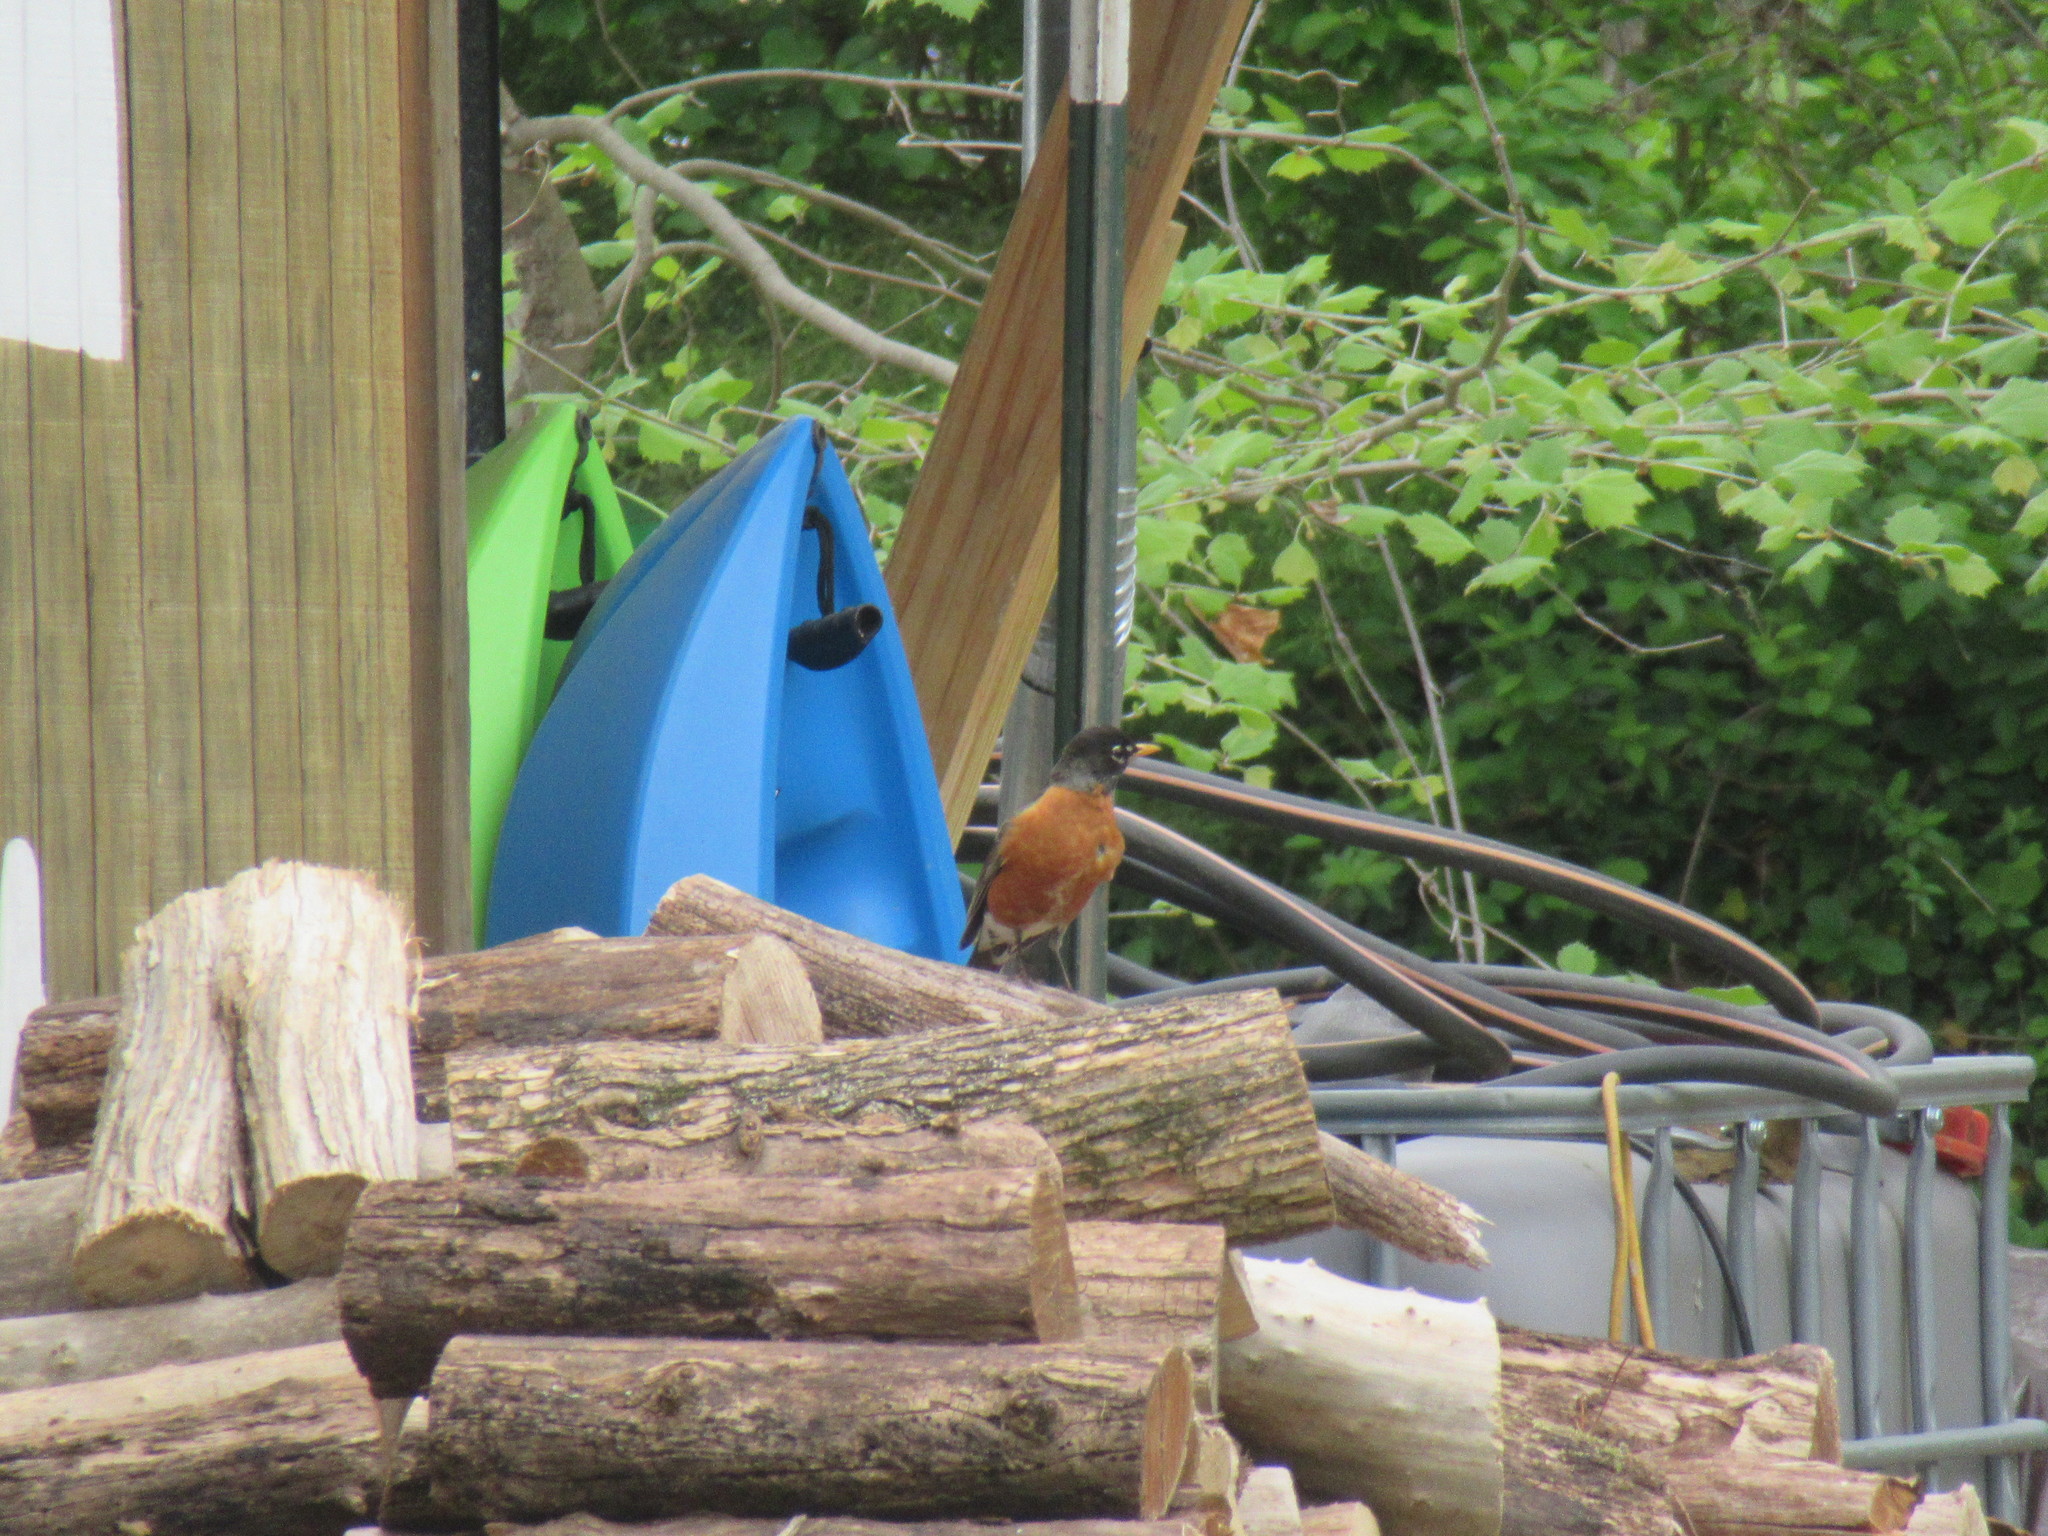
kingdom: Animalia
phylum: Chordata
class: Aves
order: Passeriformes
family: Turdidae
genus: Turdus
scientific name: Turdus migratorius
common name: American robin
